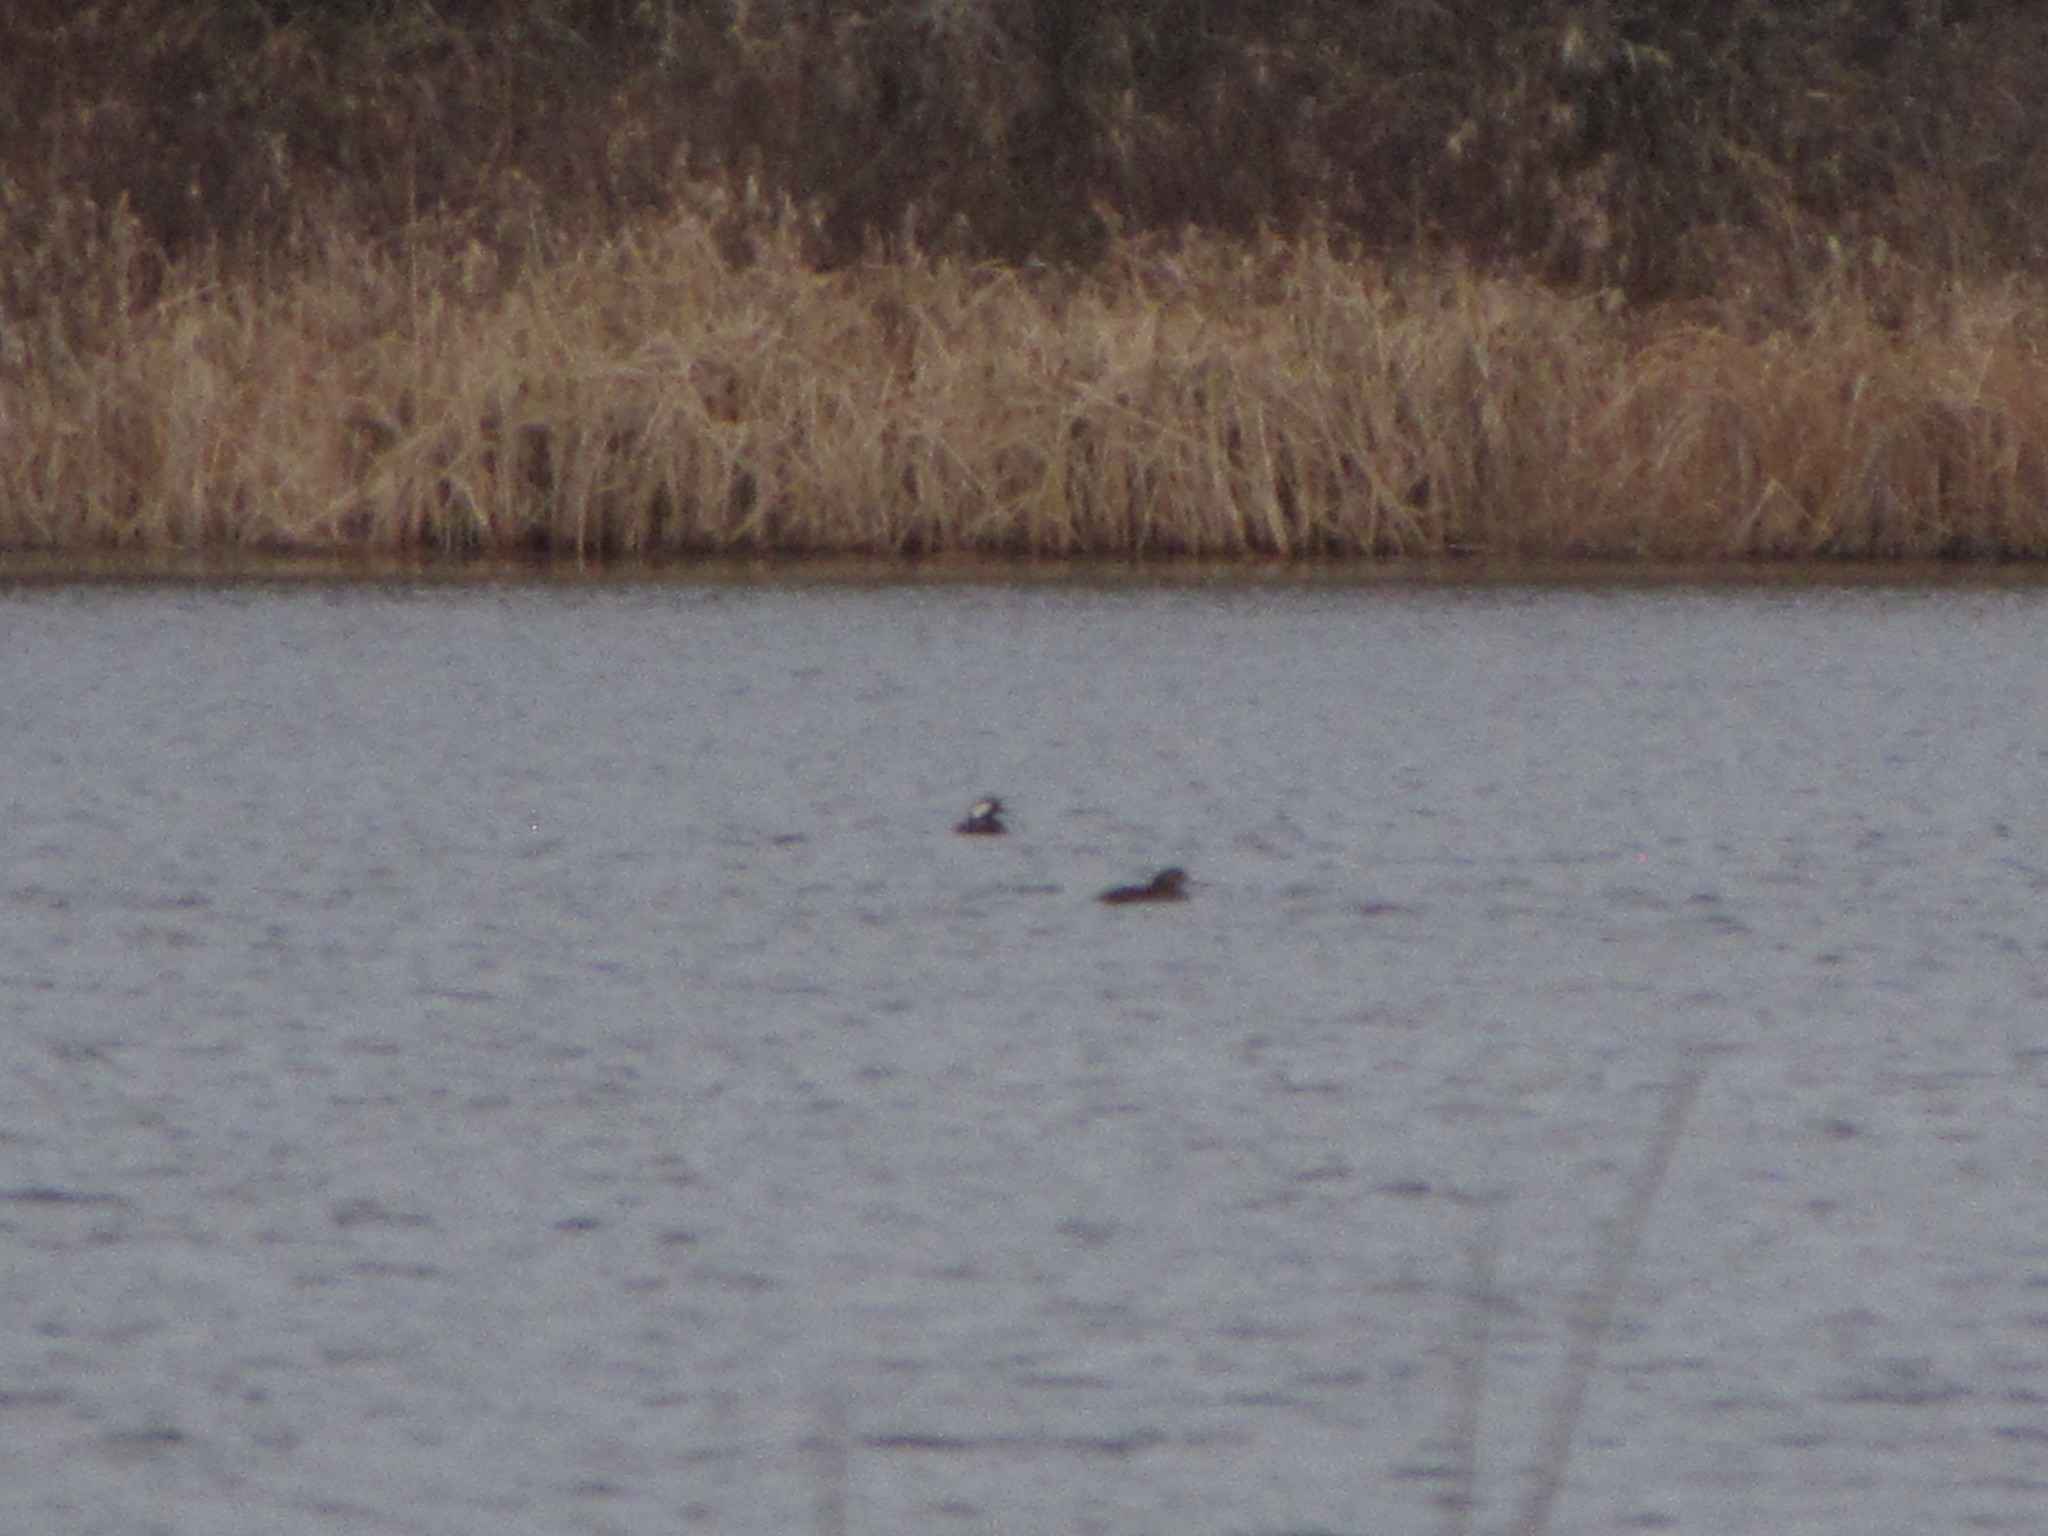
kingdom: Animalia
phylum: Chordata
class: Aves
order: Anseriformes
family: Anatidae
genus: Lophodytes
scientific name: Lophodytes cucullatus
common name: Hooded merganser
